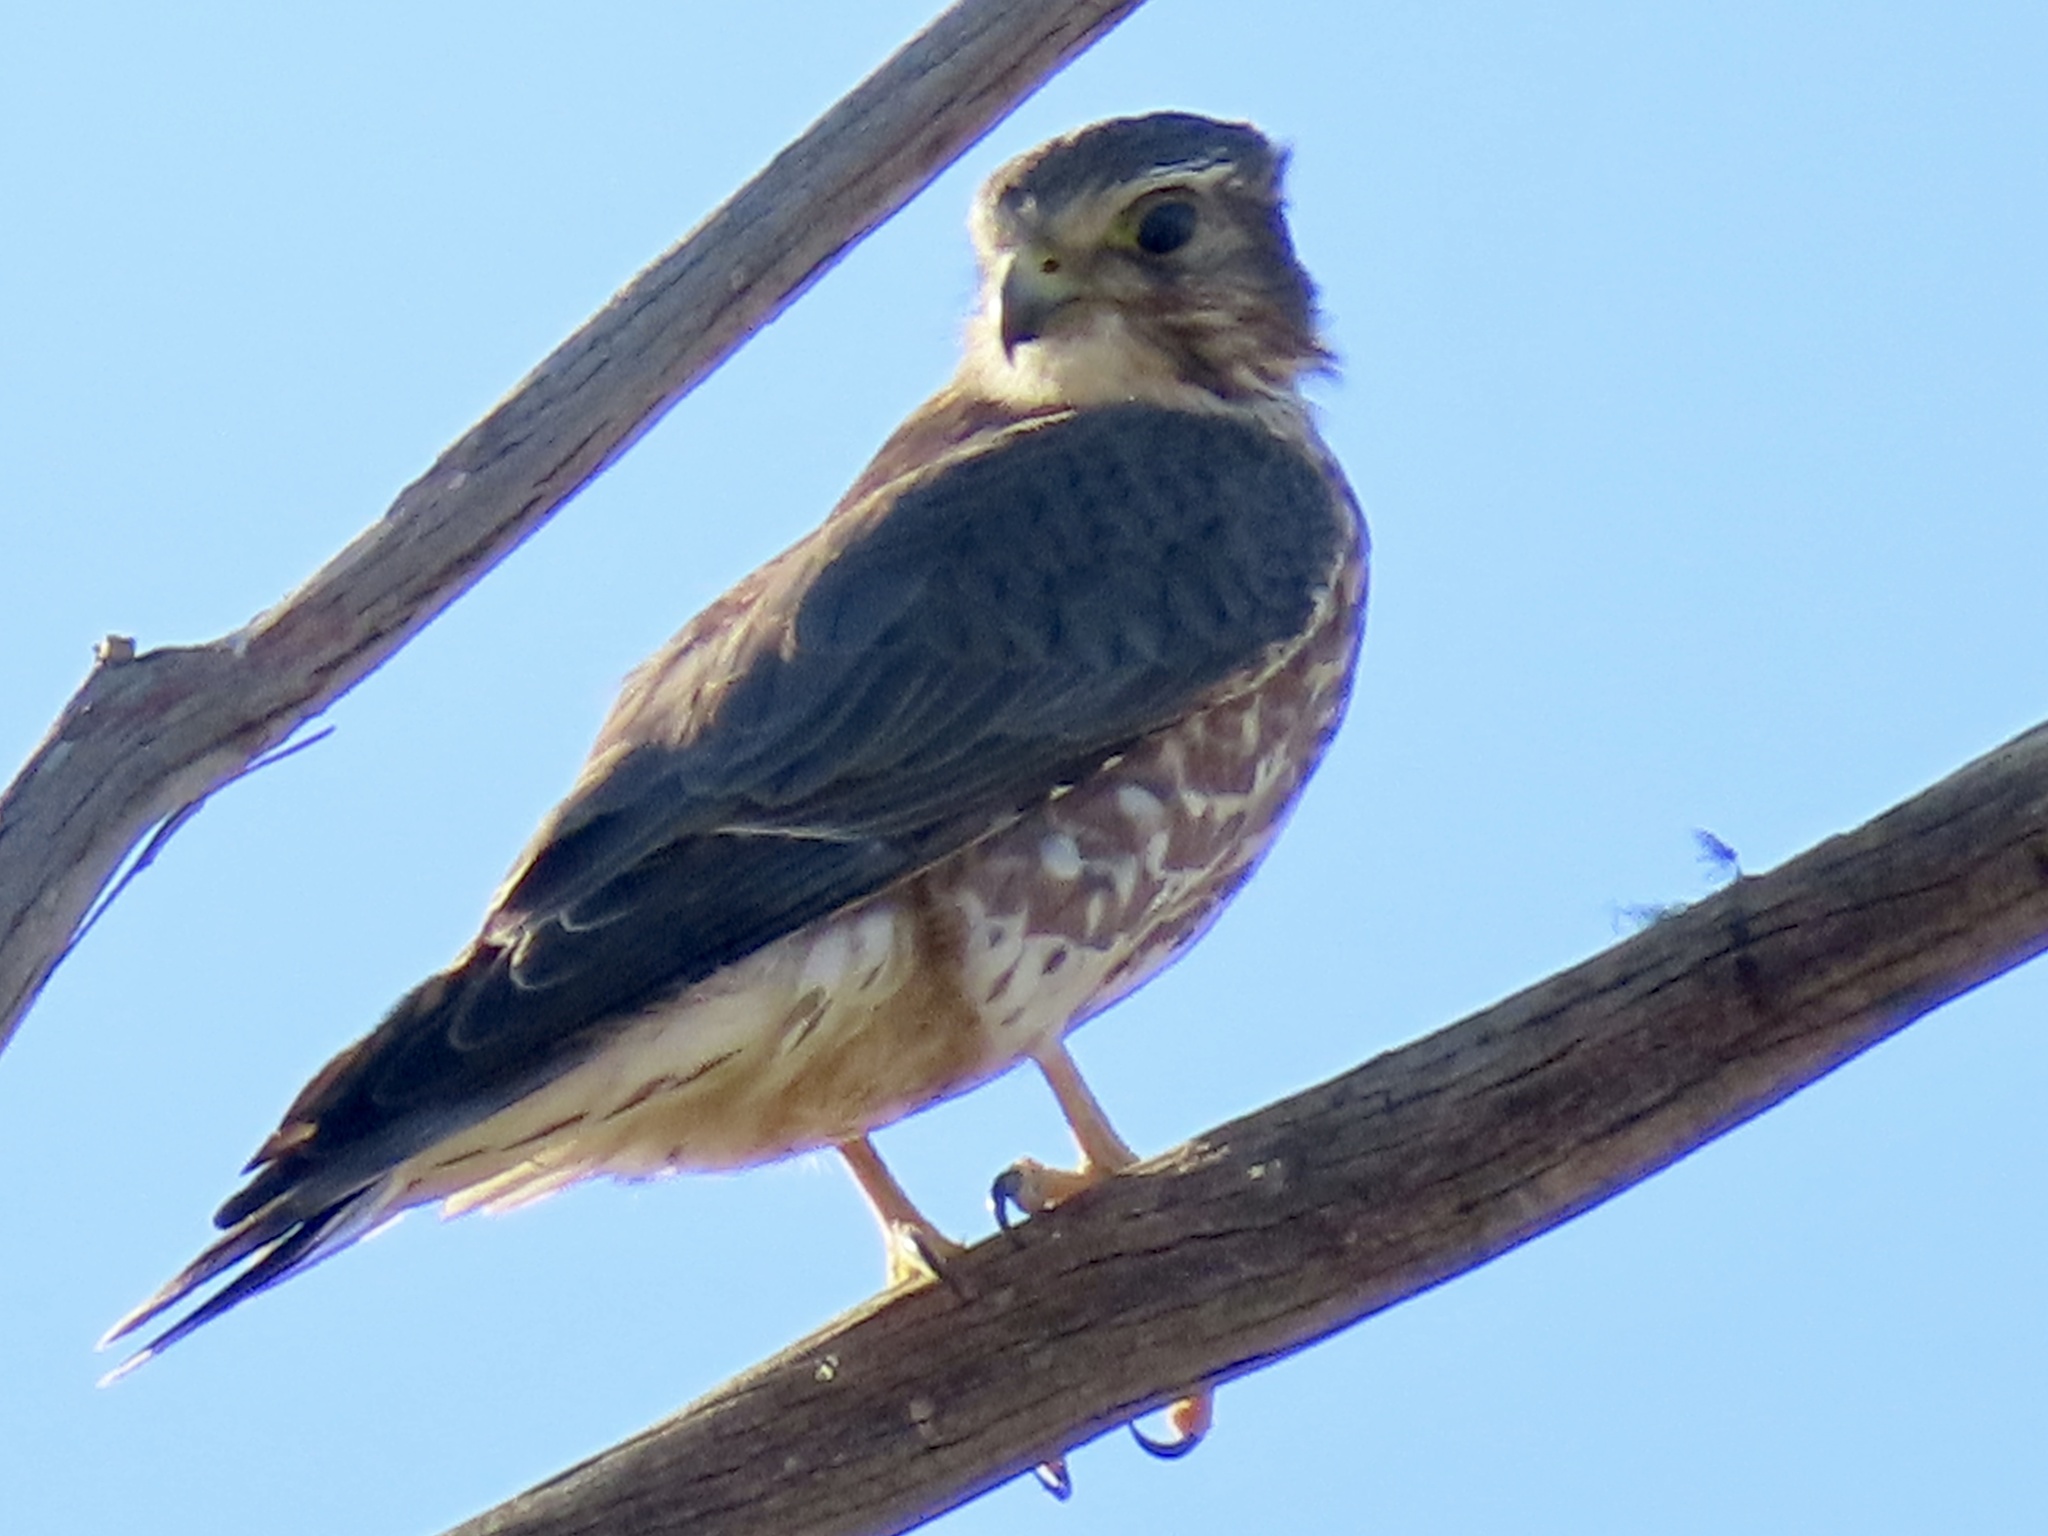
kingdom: Animalia
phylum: Chordata
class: Aves
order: Falconiformes
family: Falconidae
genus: Falco
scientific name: Falco columbarius
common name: Merlin
